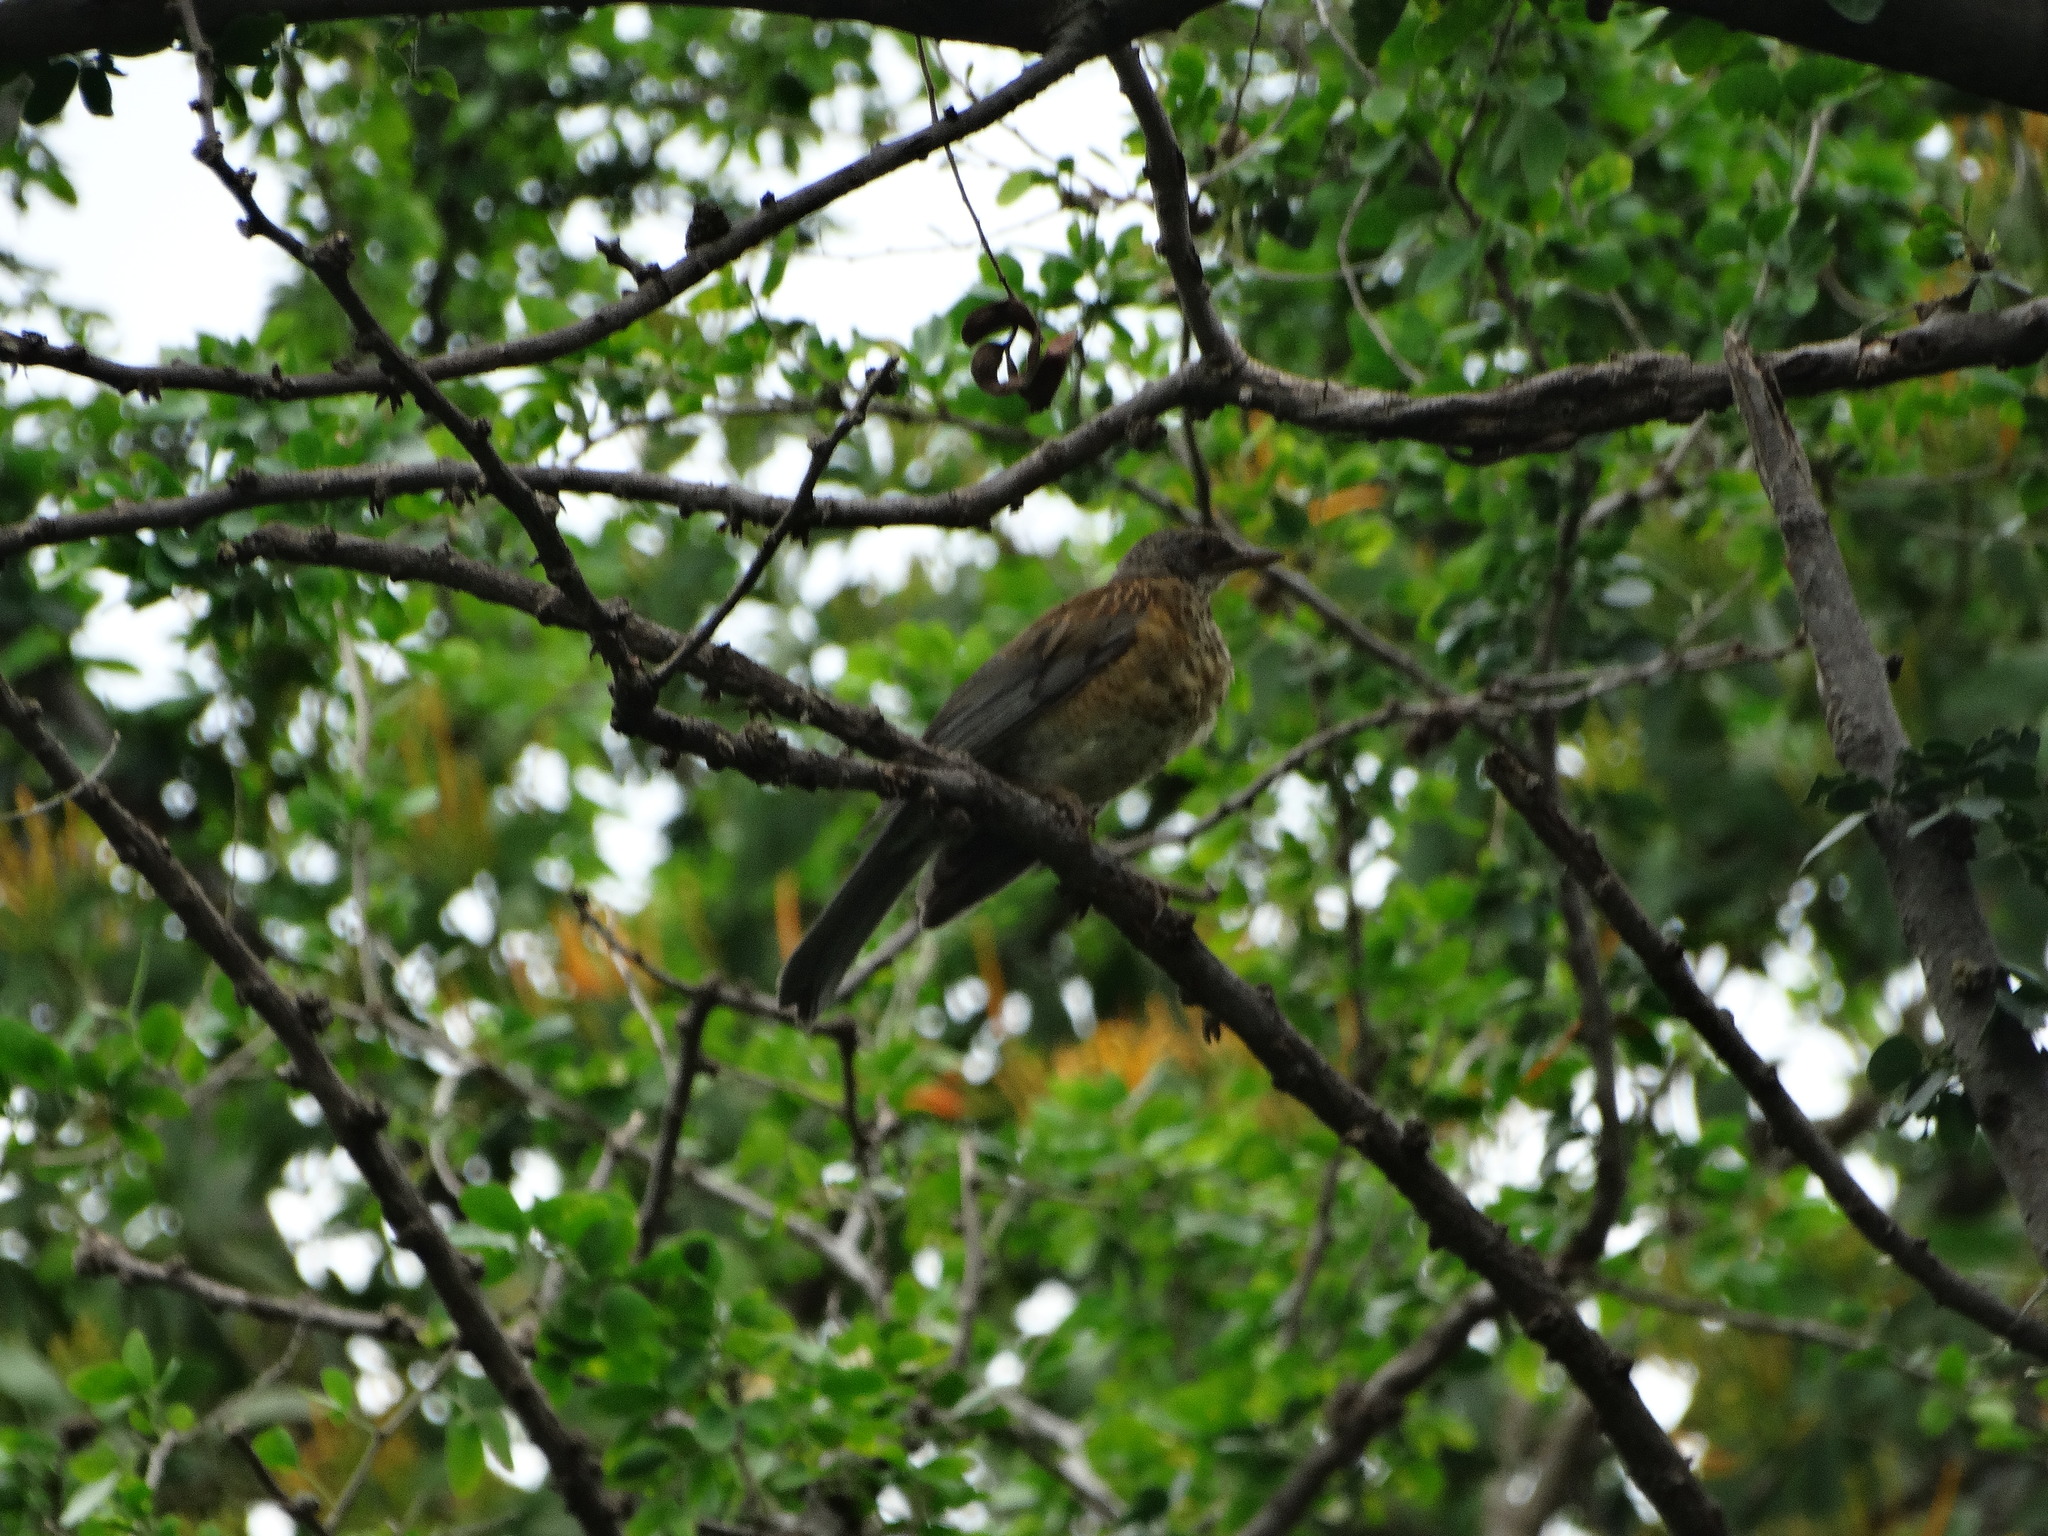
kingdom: Animalia
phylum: Chordata
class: Aves
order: Passeriformes
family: Turdidae
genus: Turdus
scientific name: Turdus rufopalliatus
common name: Rufous-backed robin
